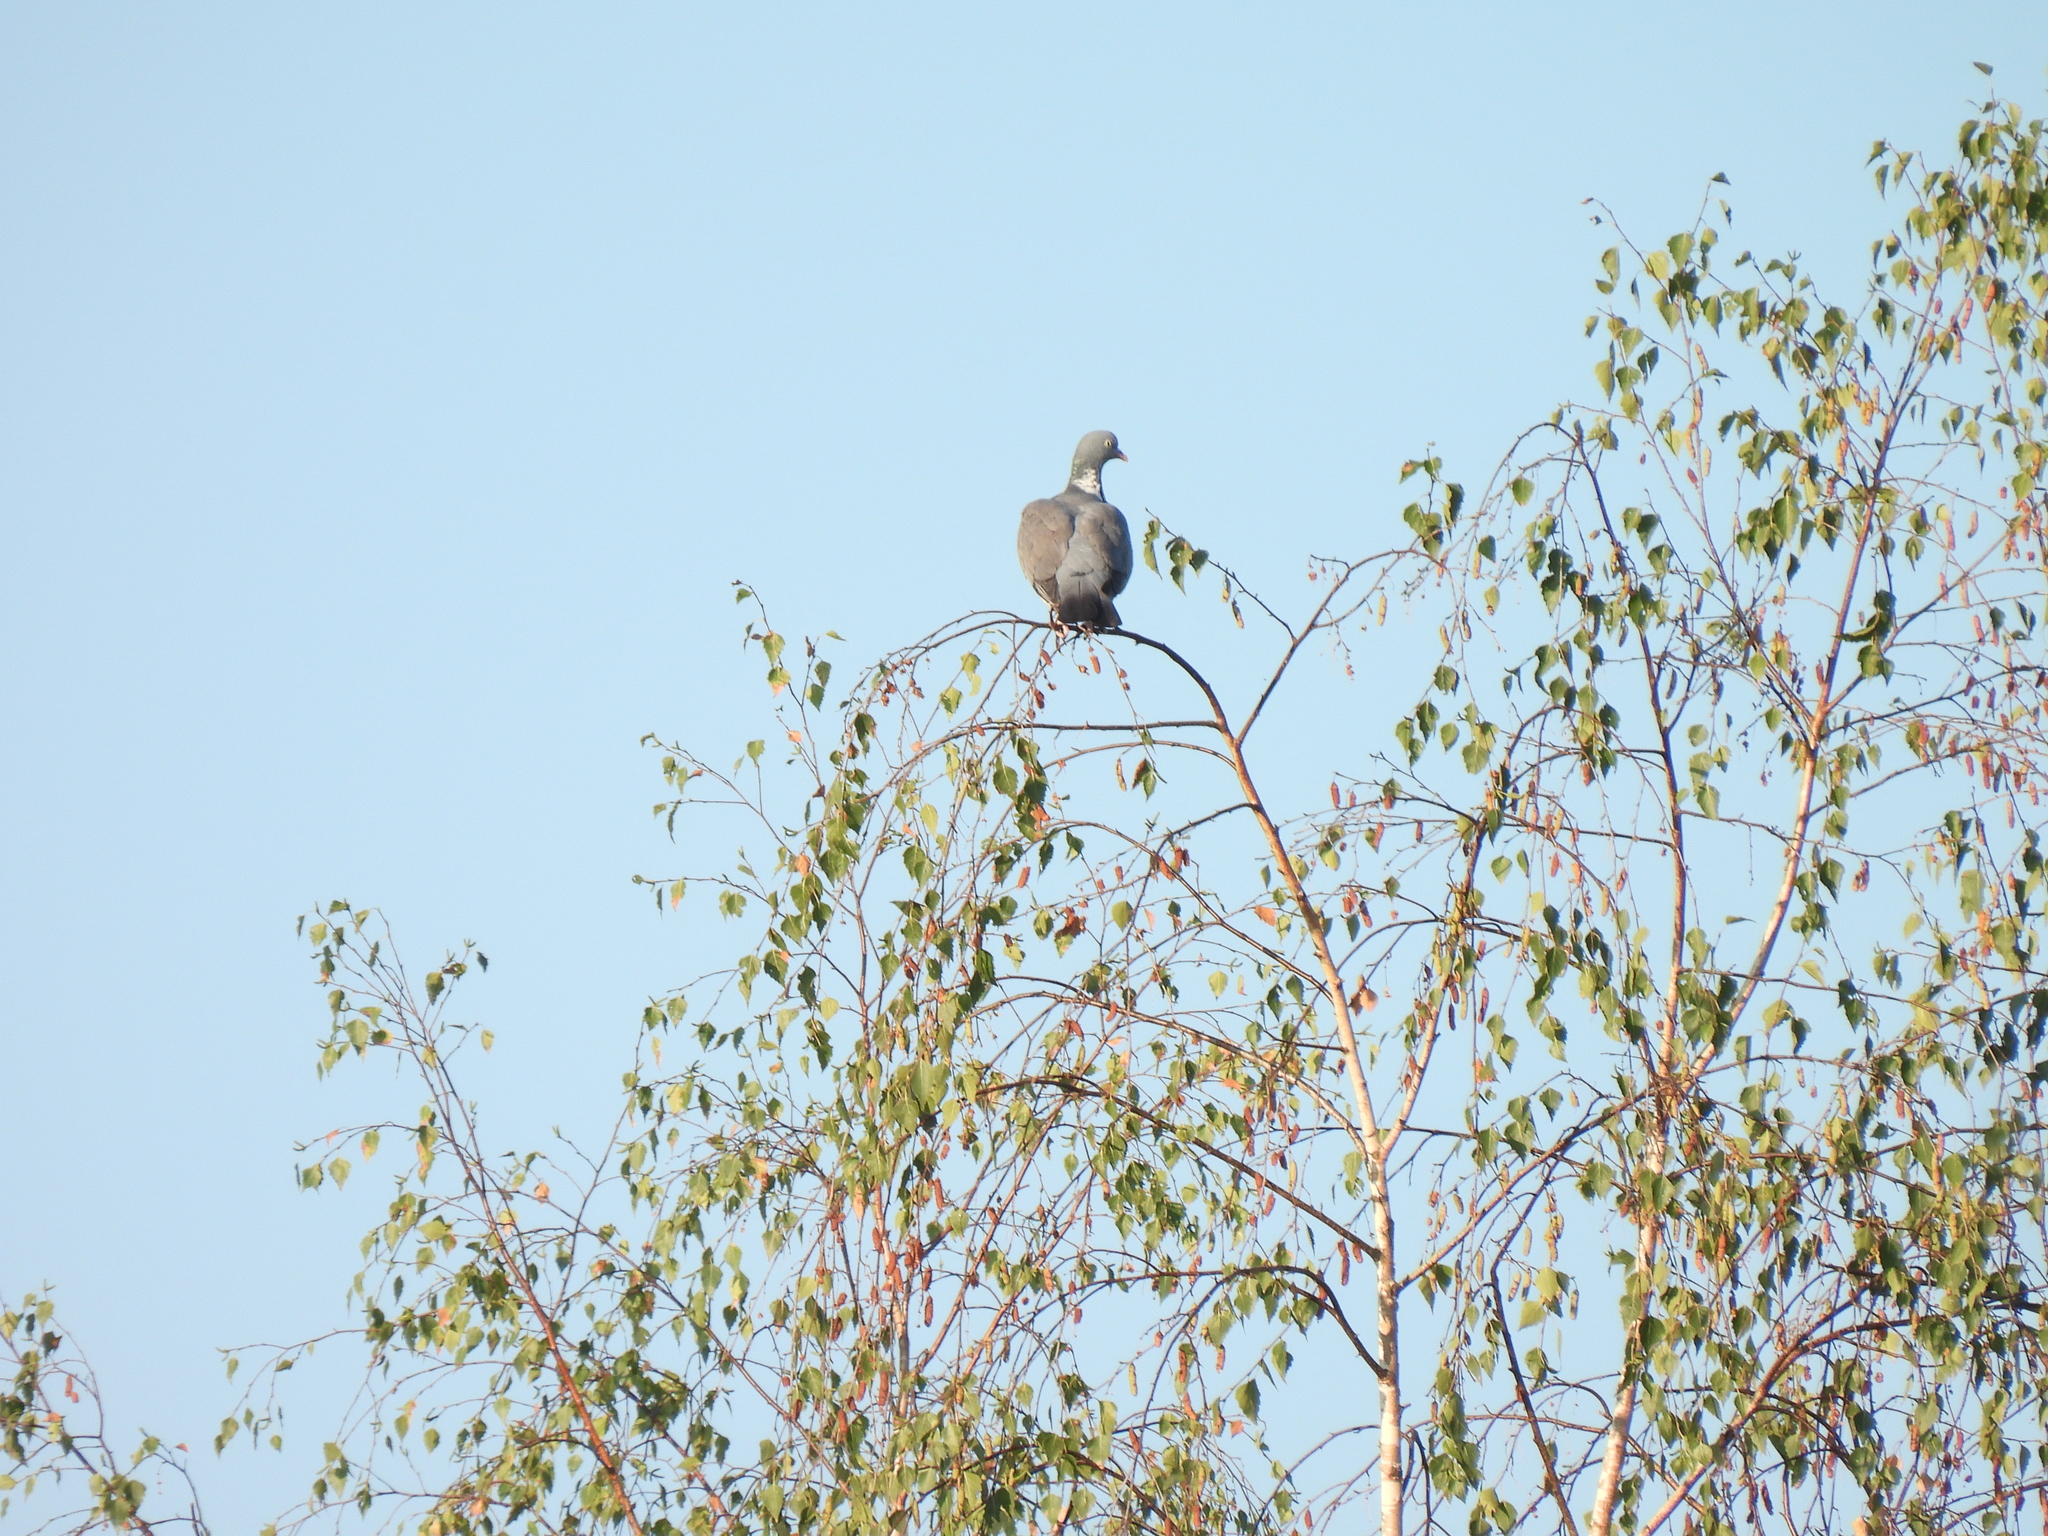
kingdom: Animalia
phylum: Chordata
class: Aves
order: Columbiformes
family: Columbidae
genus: Columba
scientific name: Columba palumbus
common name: Common wood pigeon
